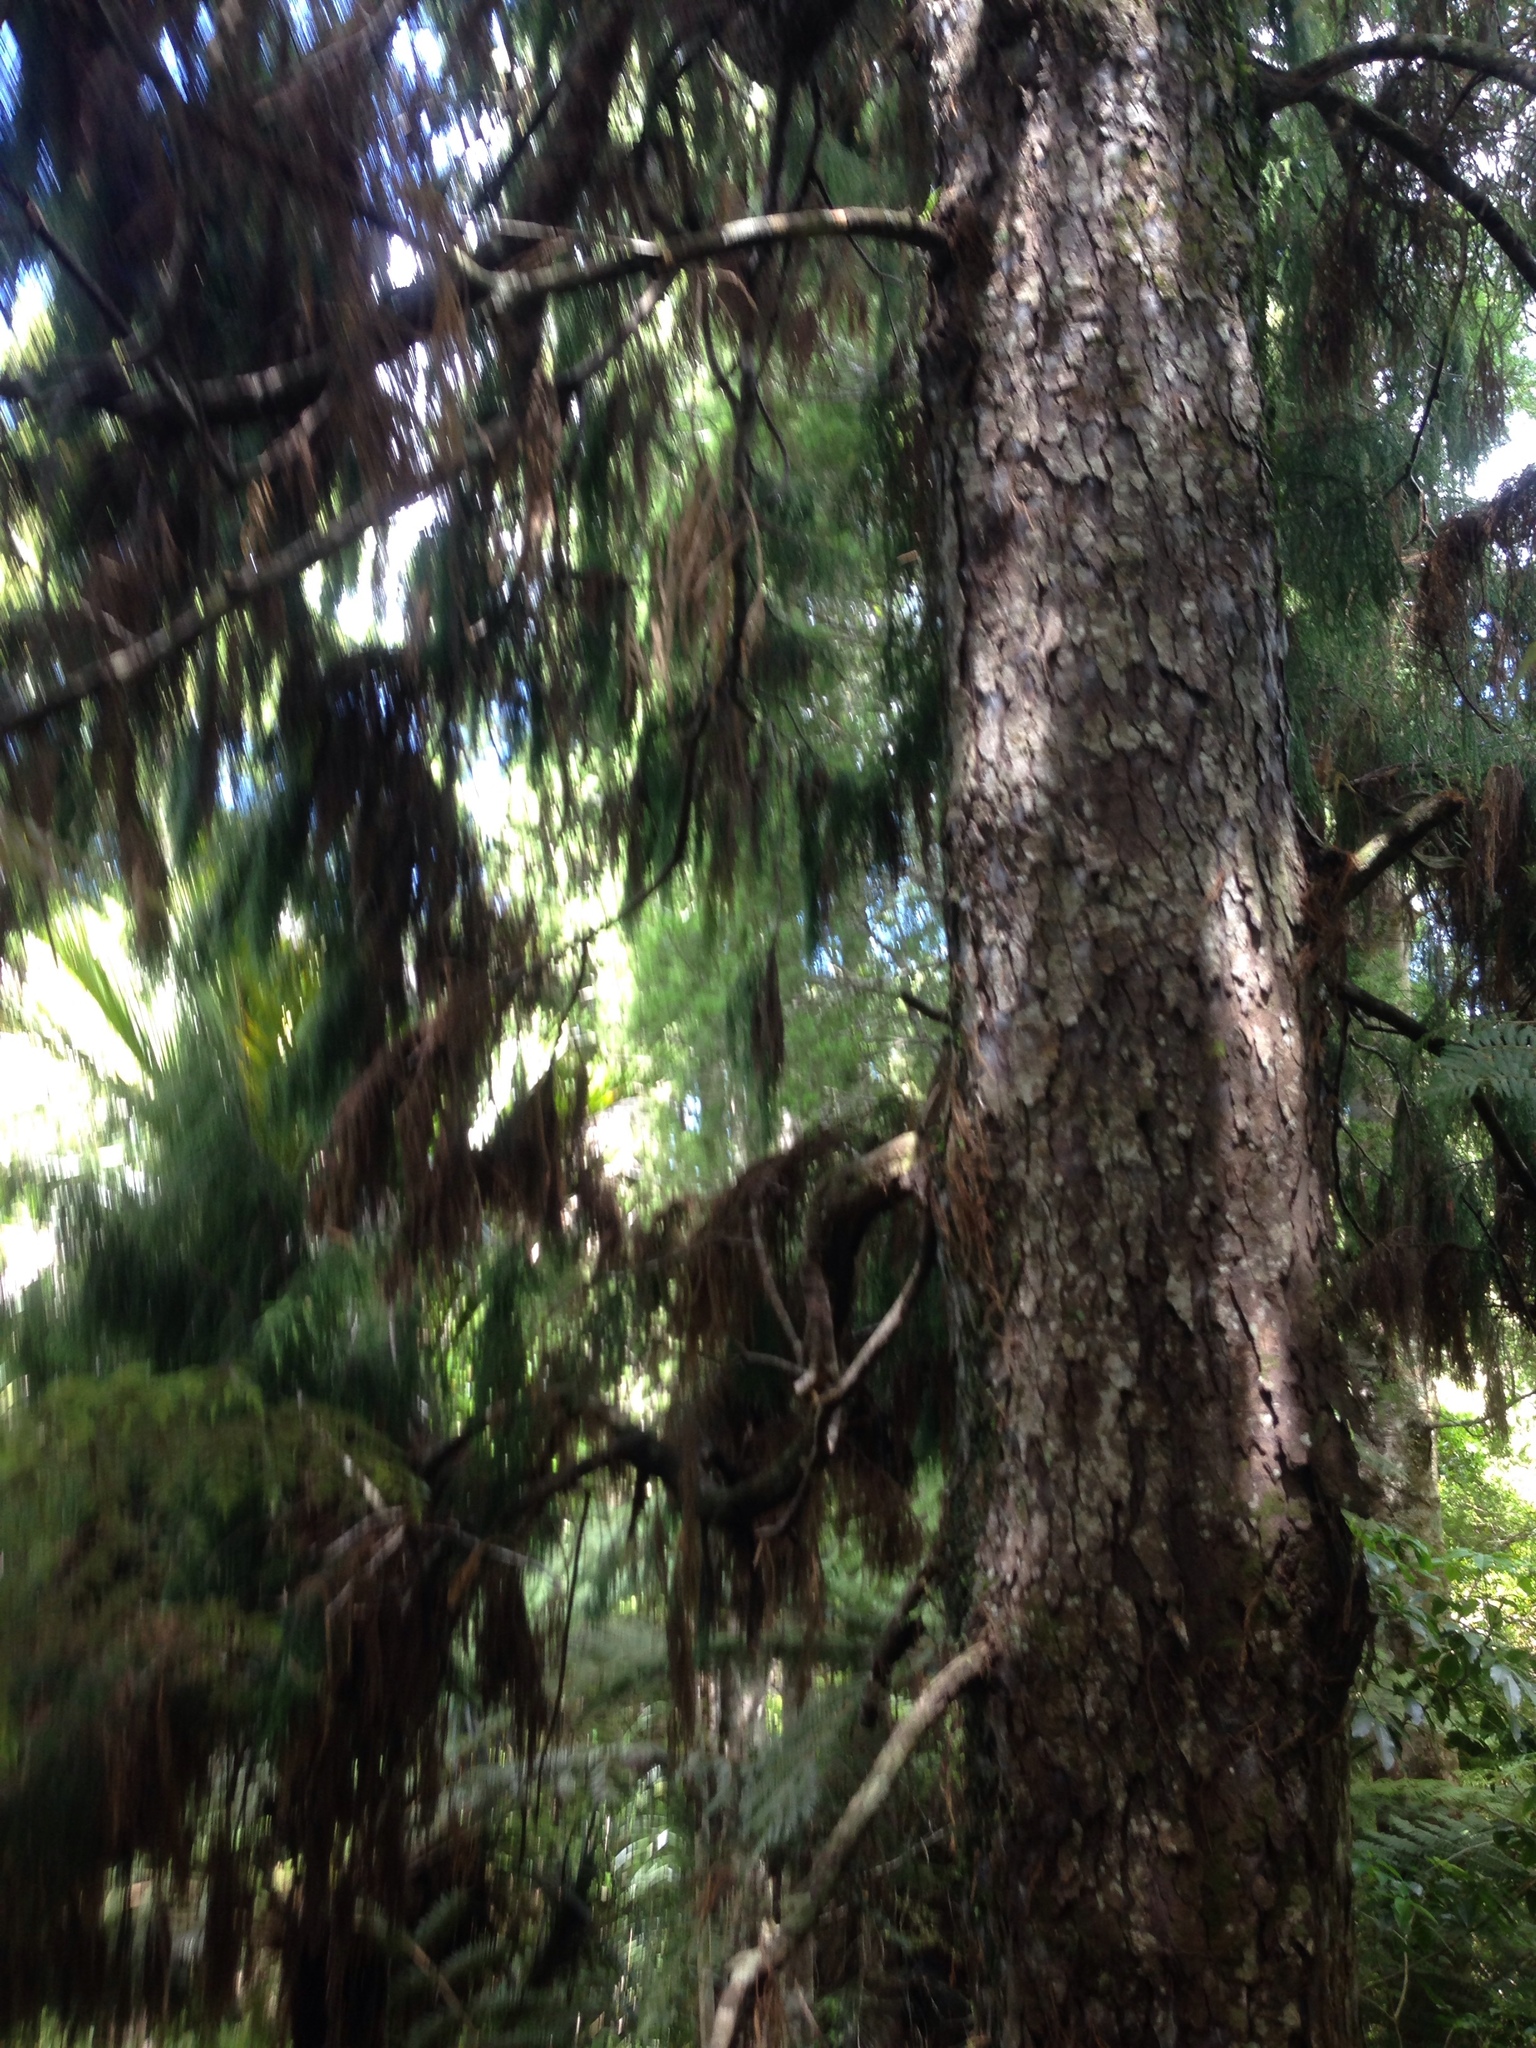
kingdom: Plantae
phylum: Tracheophyta
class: Pinopsida
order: Pinales
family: Podocarpaceae
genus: Dacrydium
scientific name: Dacrydium cupressinum
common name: Red pine
